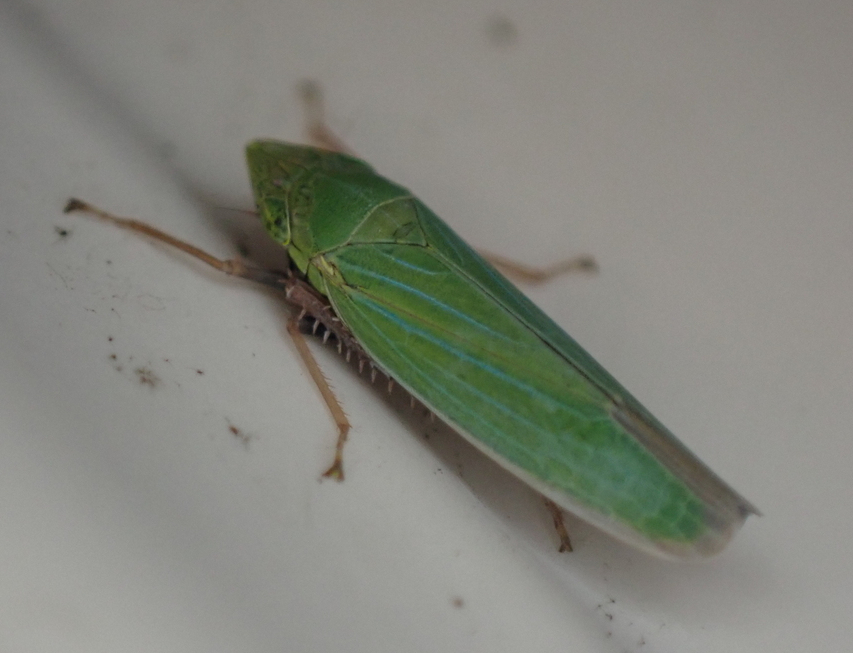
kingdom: Animalia
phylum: Arthropoda
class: Insecta
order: Hemiptera
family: Cicadellidae
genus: Draeculacephala
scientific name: Draeculacephala robinsoni
